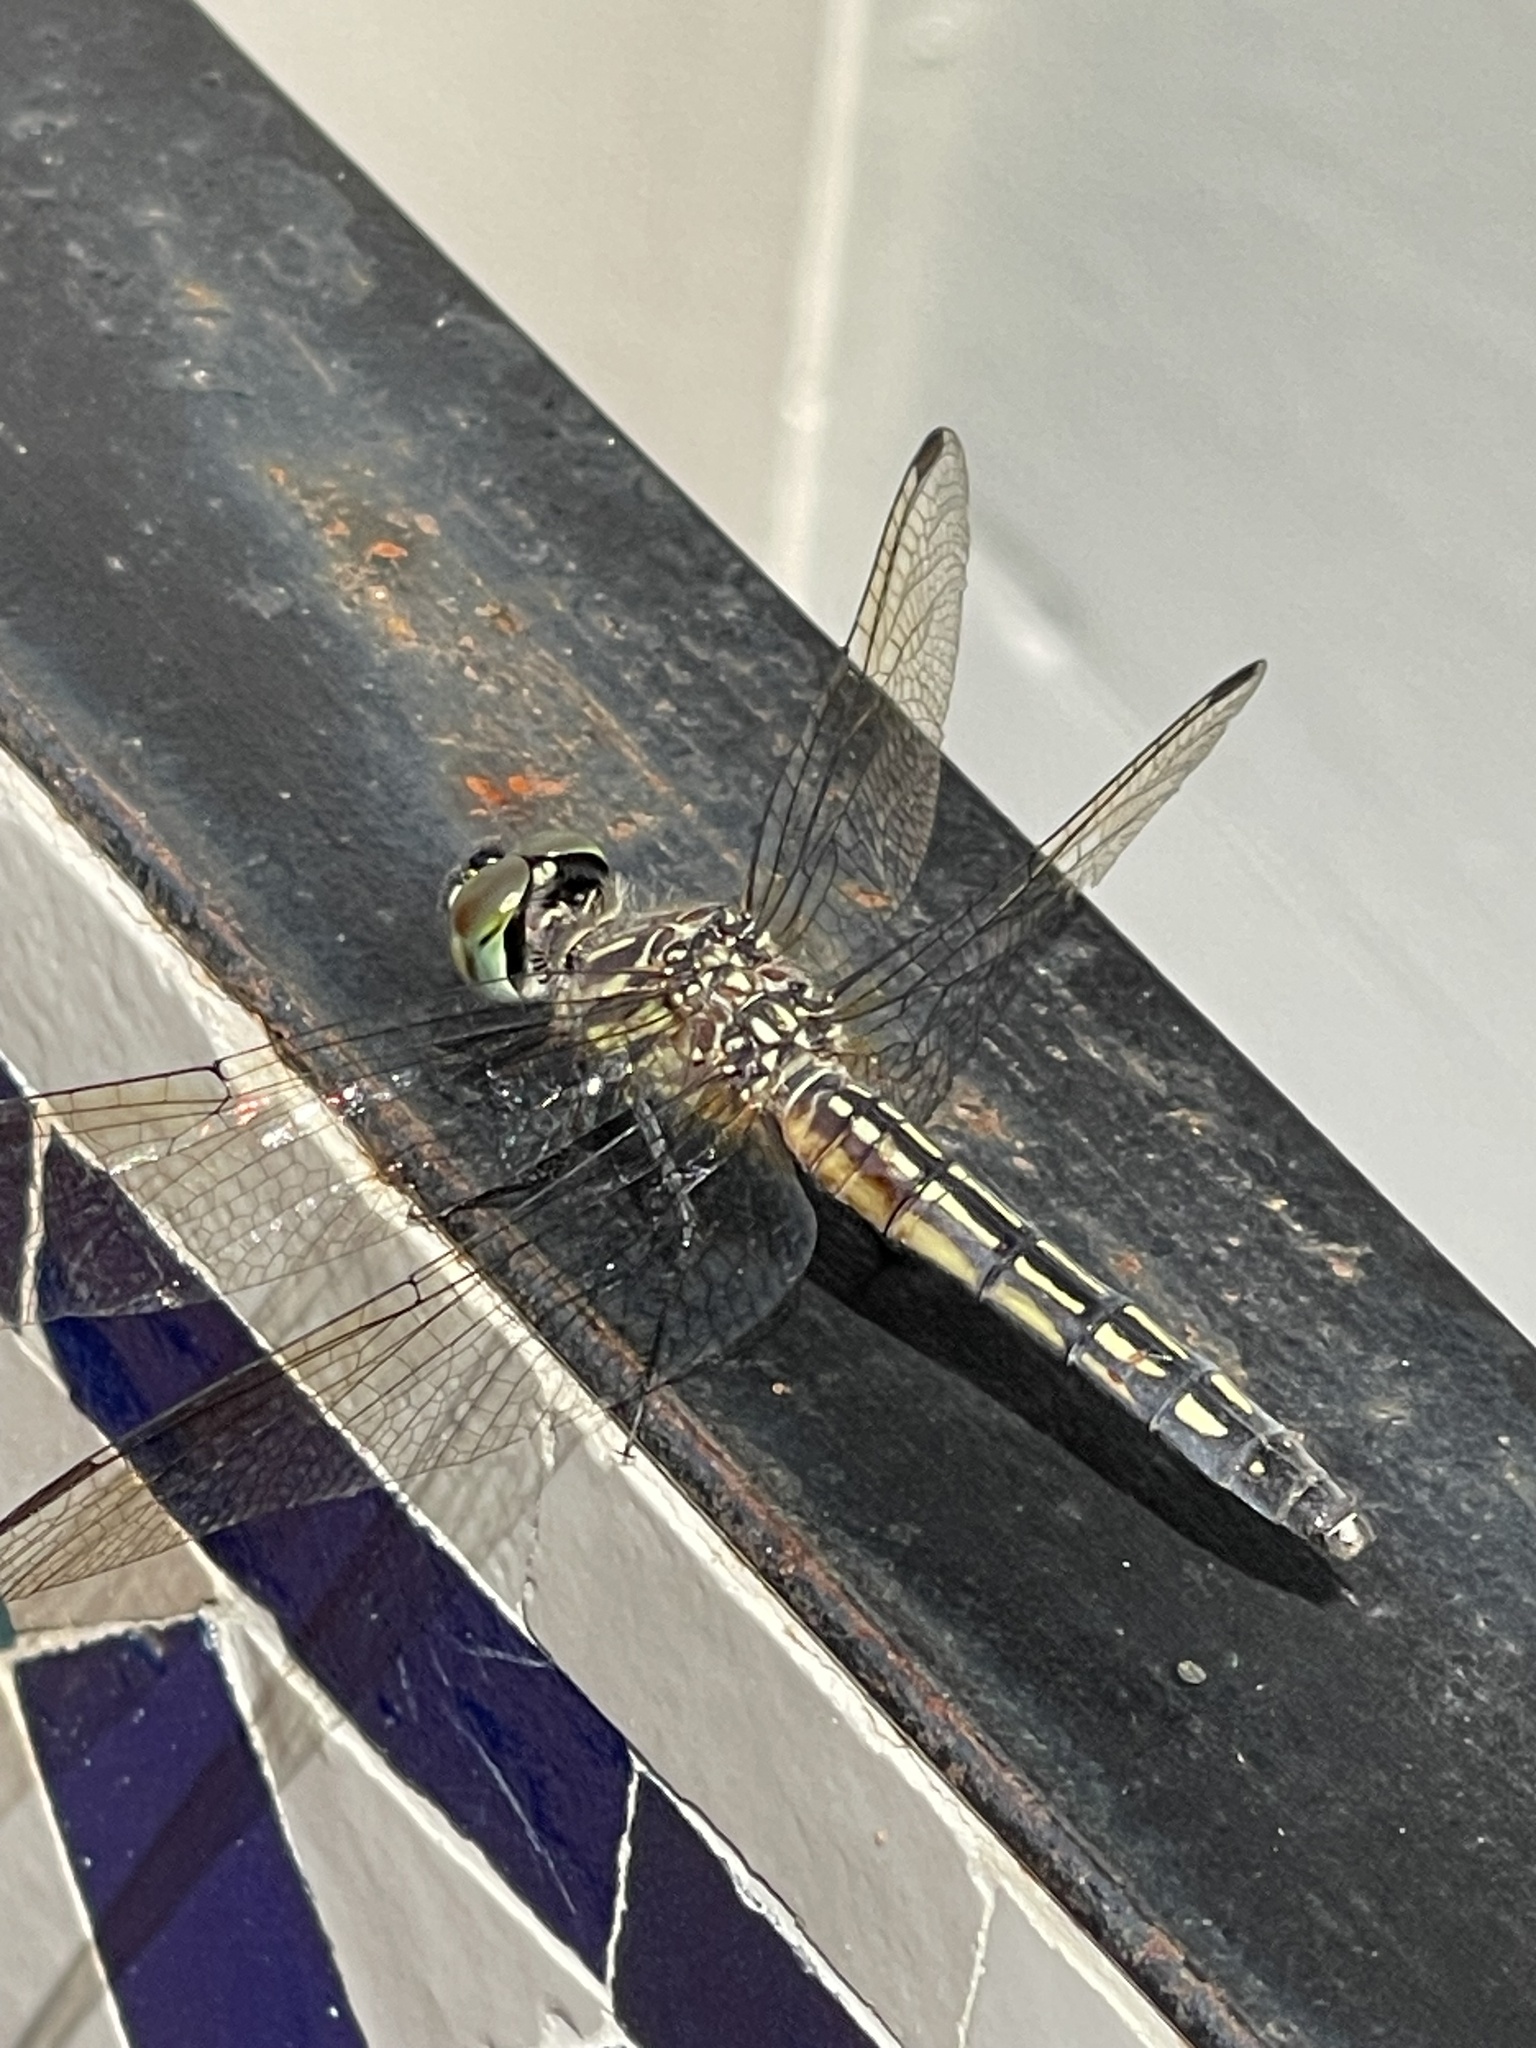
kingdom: Animalia
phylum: Arthropoda
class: Insecta
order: Odonata
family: Libellulidae
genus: Pachydiplax
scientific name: Pachydiplax longipennis
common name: Blue dasher
